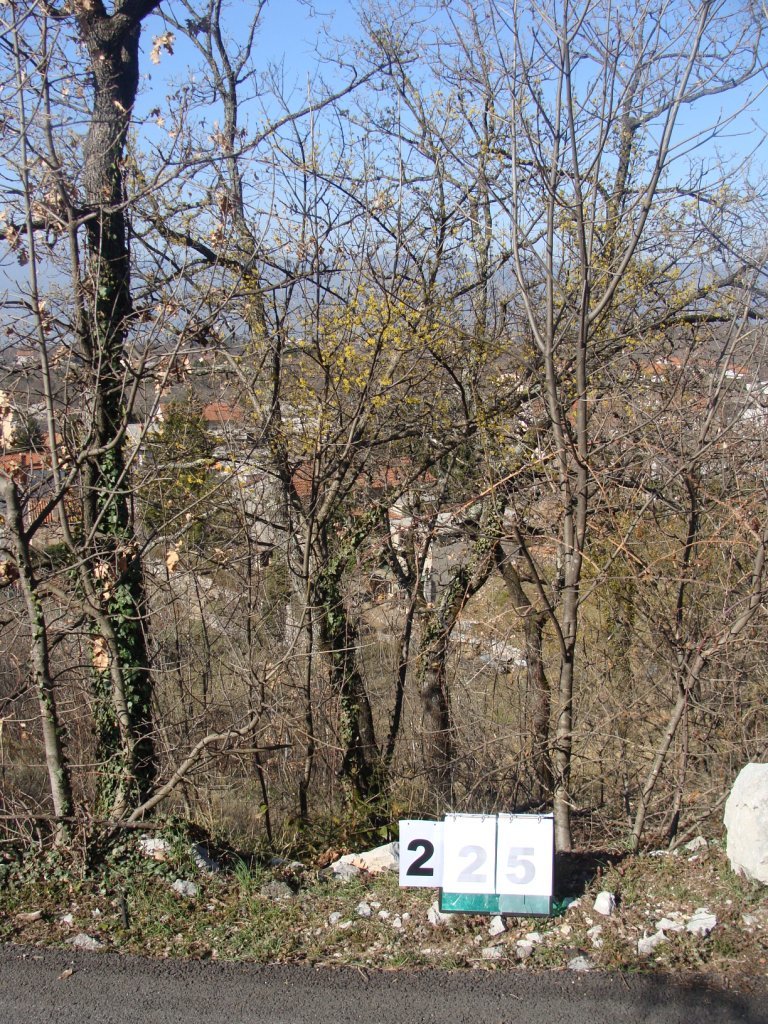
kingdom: Plantae
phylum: Tracheophyta
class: Magnoliopsida
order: Cornales
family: Cornaceae
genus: Cornus
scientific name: Cornus mas
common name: Cornelian-cherry
